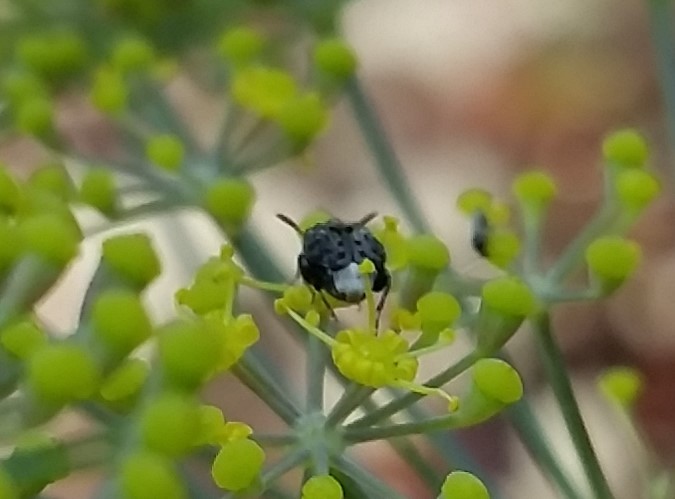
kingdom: Animalia
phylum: Arthropoda
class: Insecta
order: Coleoptera
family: Chrysomelidae
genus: Gibbobruchus
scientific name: Gibbobruchus mimus
